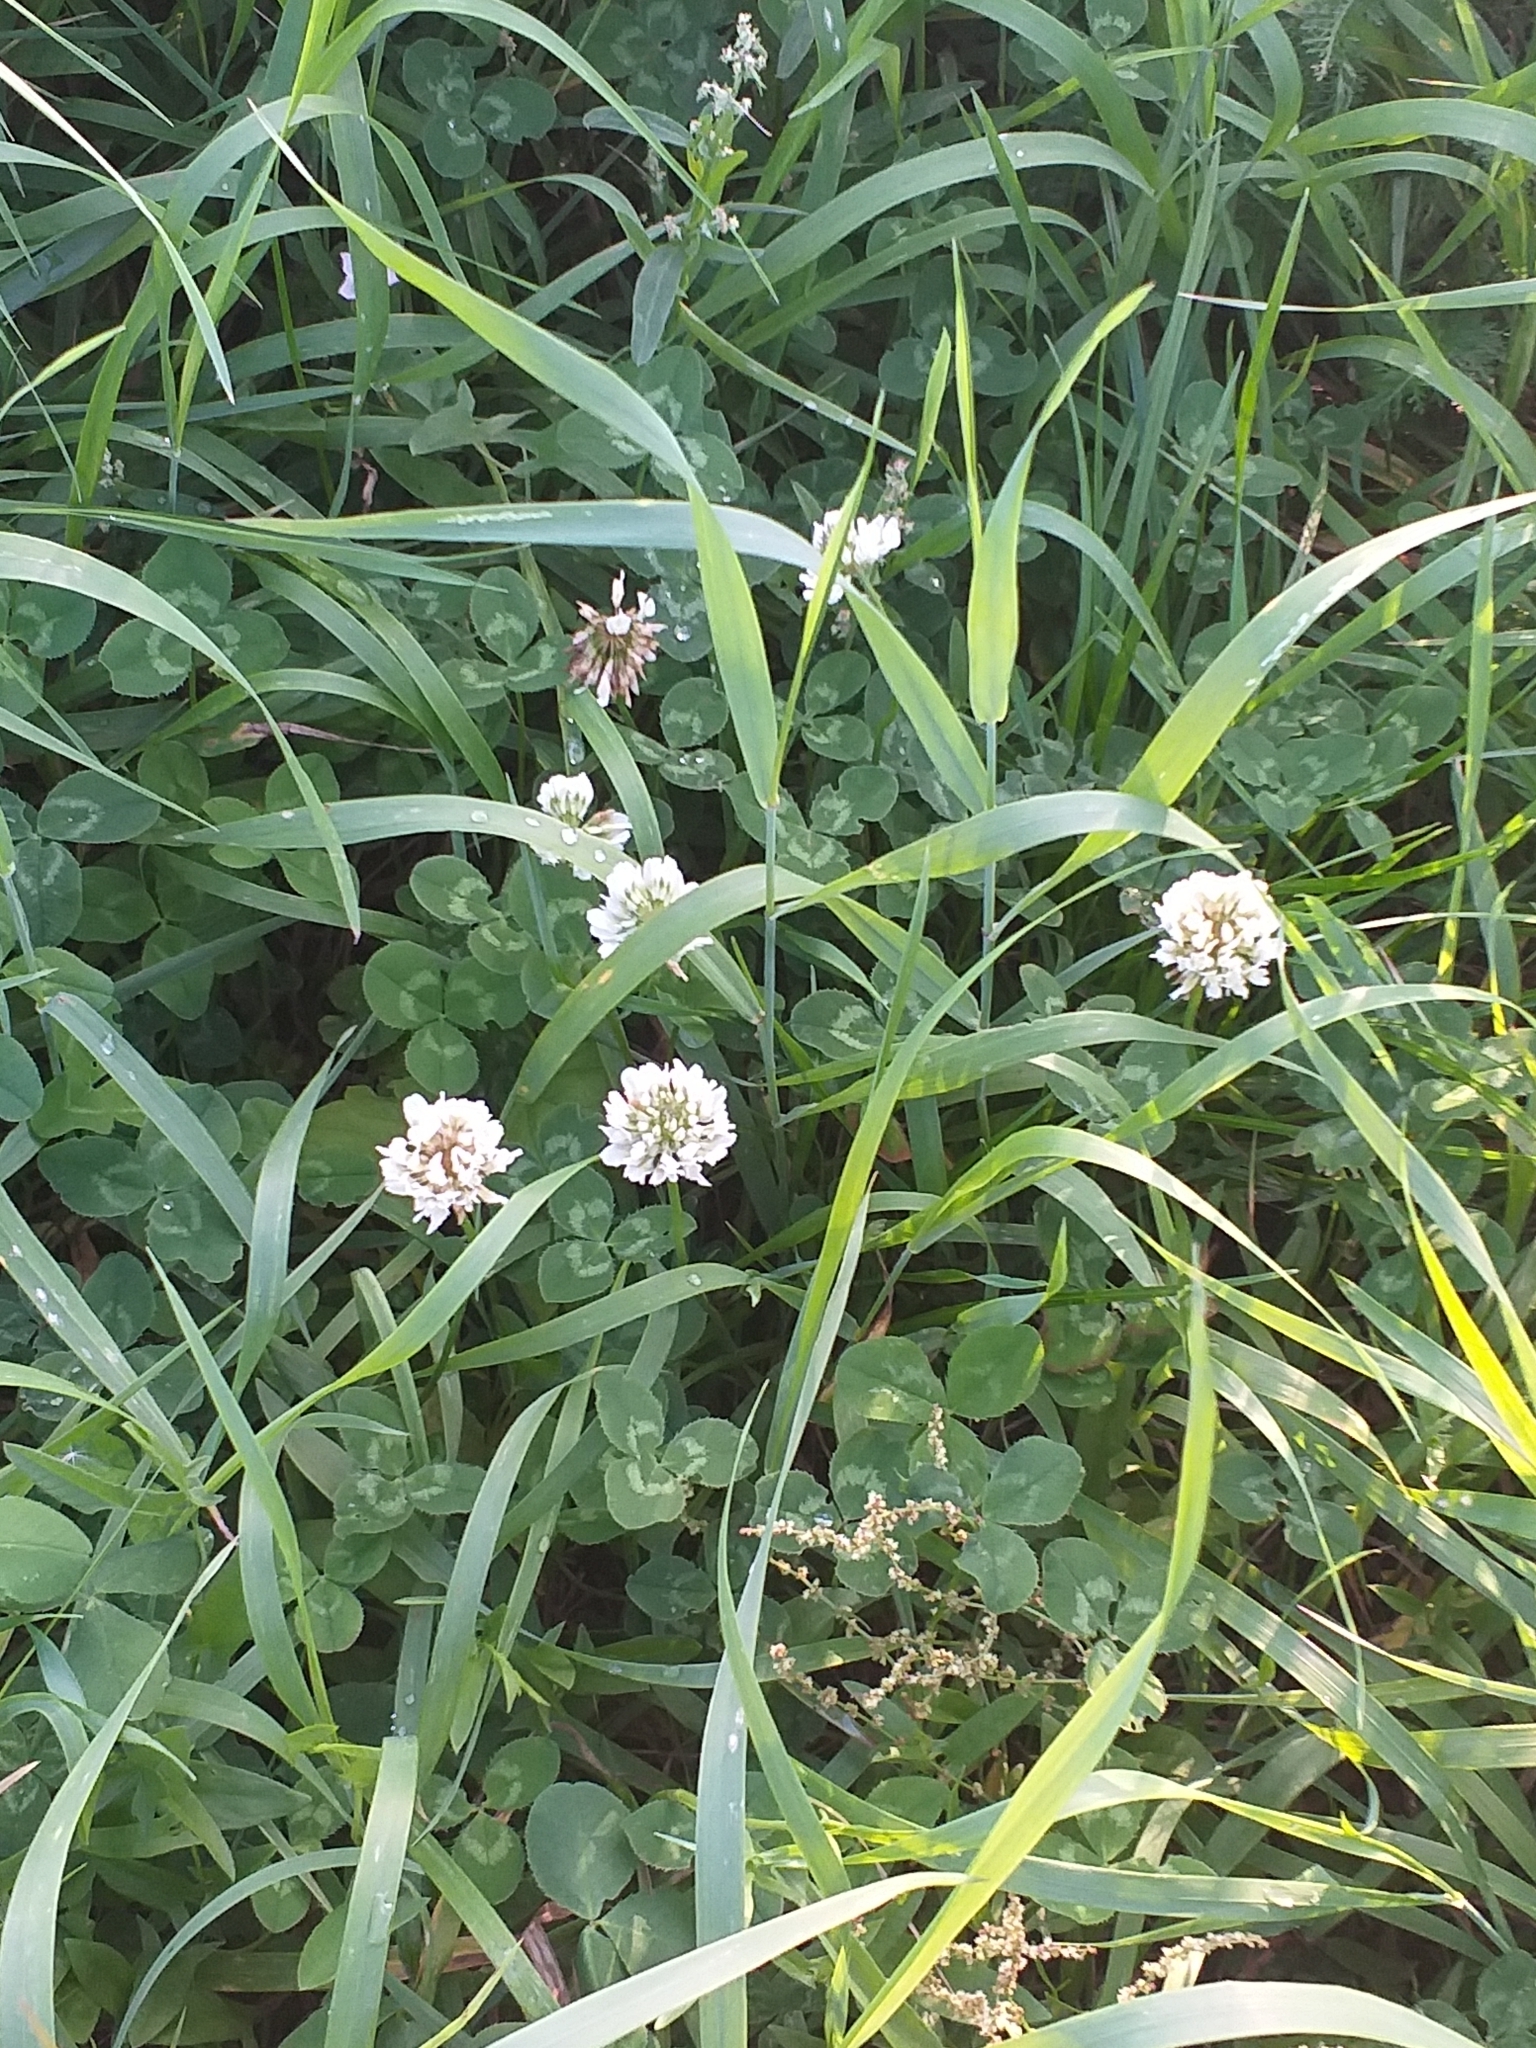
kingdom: Plantae
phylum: Tracheophyta
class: Magnoliopsida
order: Fabales
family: Fabaceae
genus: Trifolium
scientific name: Trifolium repens
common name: White clover
